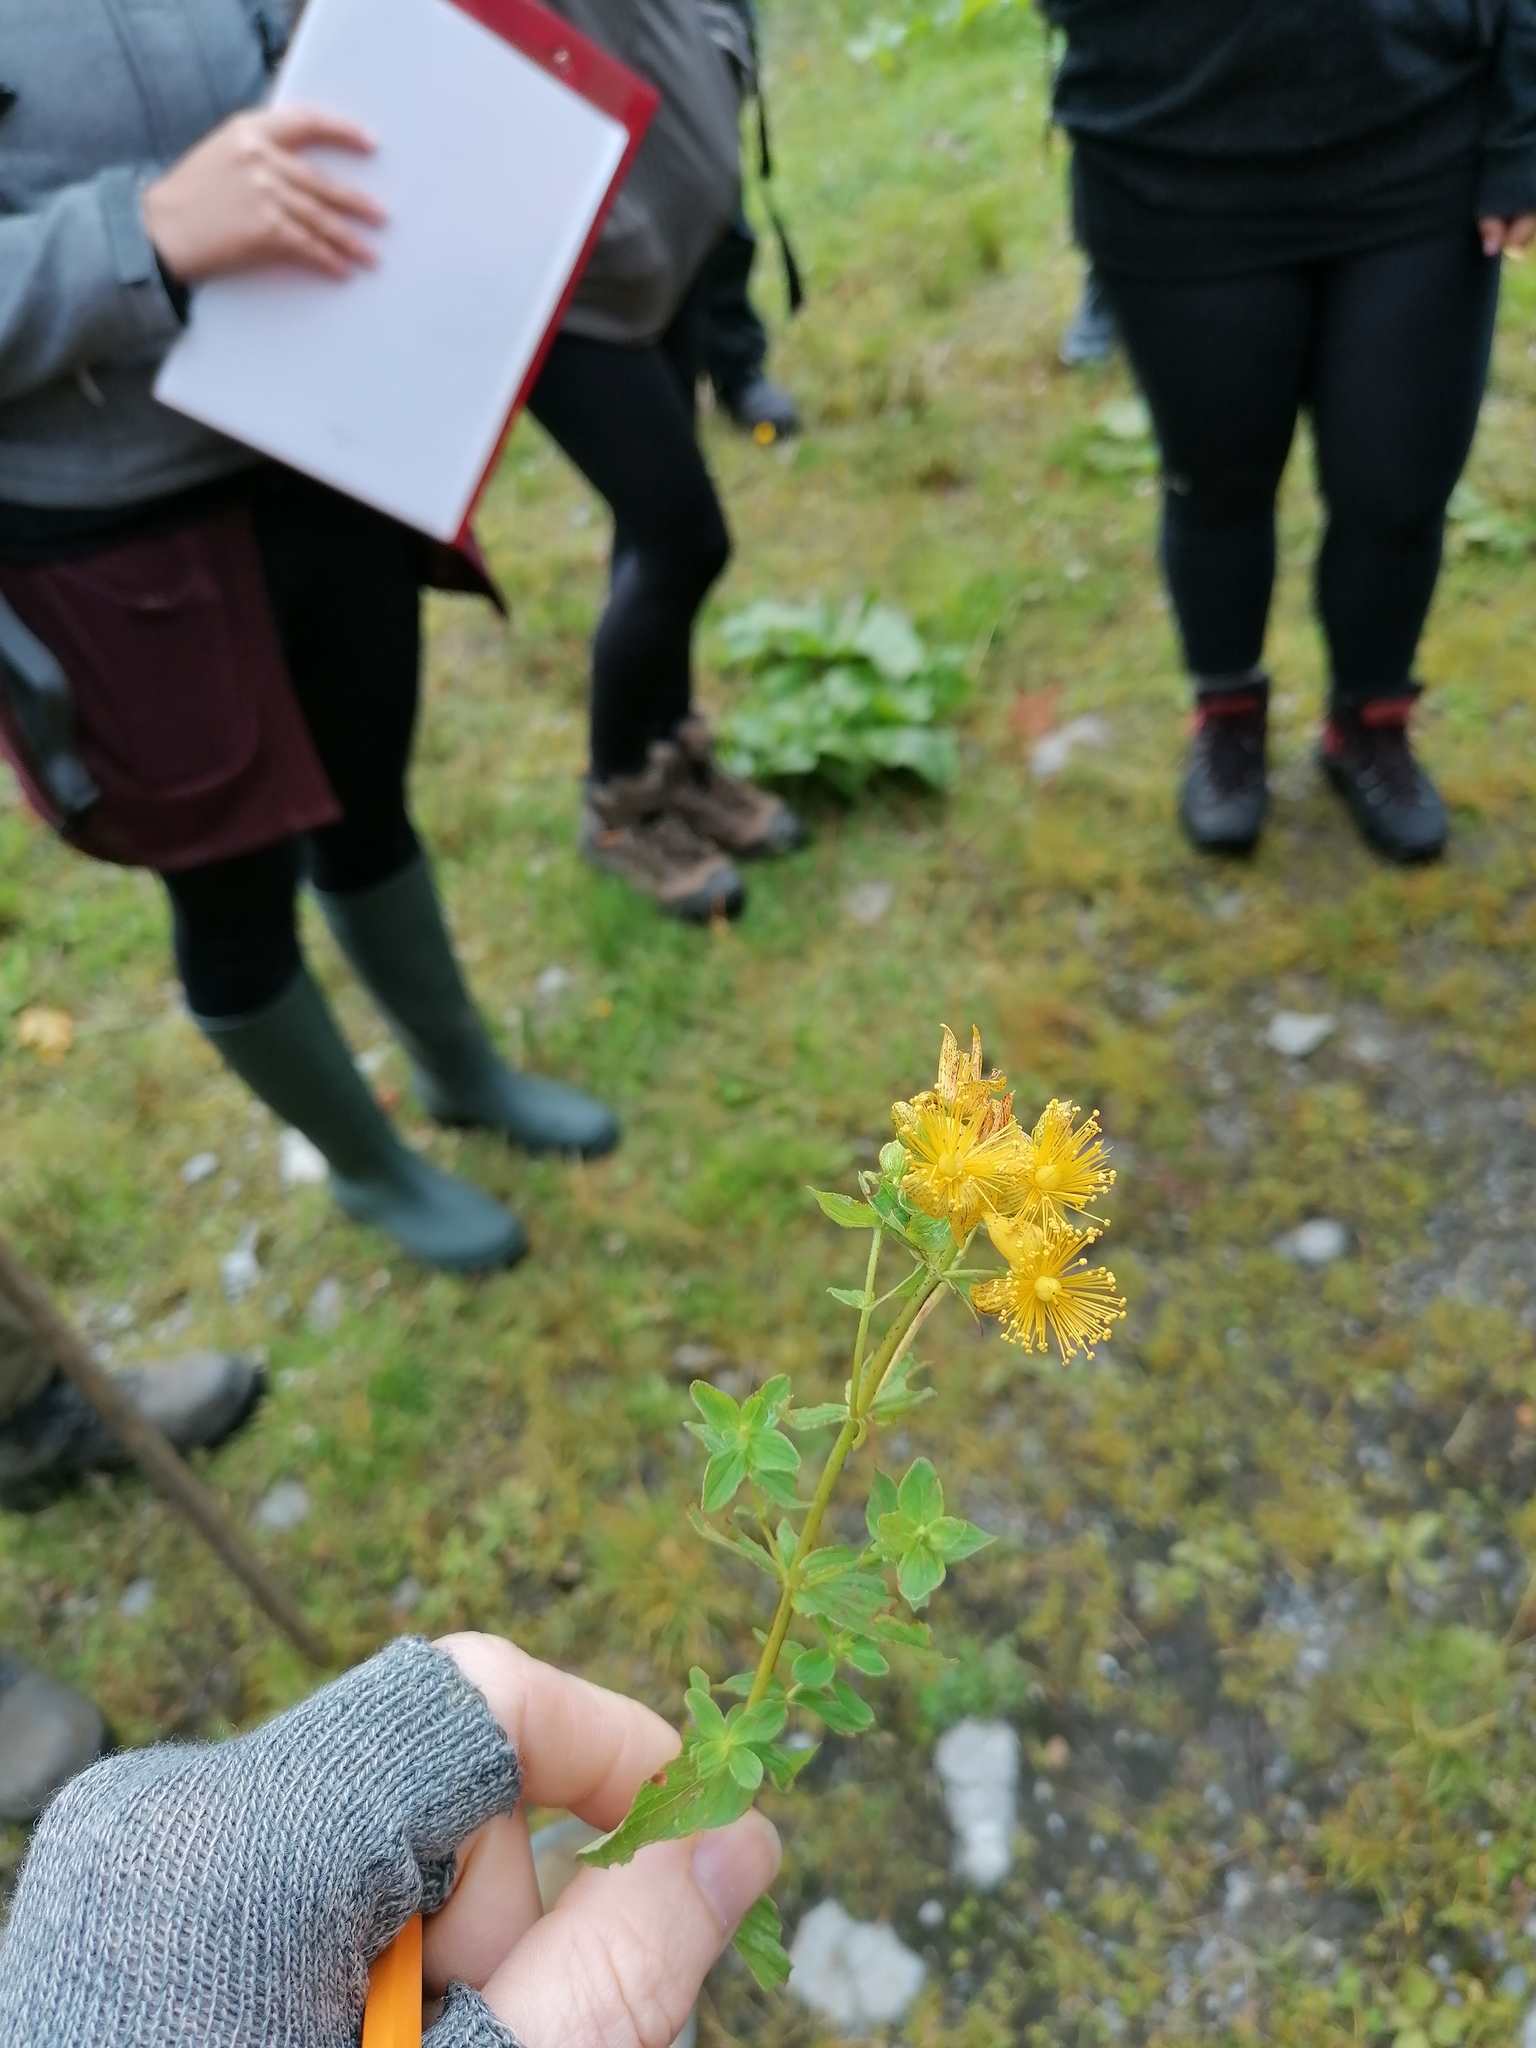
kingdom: Plantae
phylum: Tracheophyta
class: Magnoliopsida
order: Malpighiales
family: Hypericaceae
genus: Hypericum
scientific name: Hypericum maculatum
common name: Imperforate st. john's-wort
